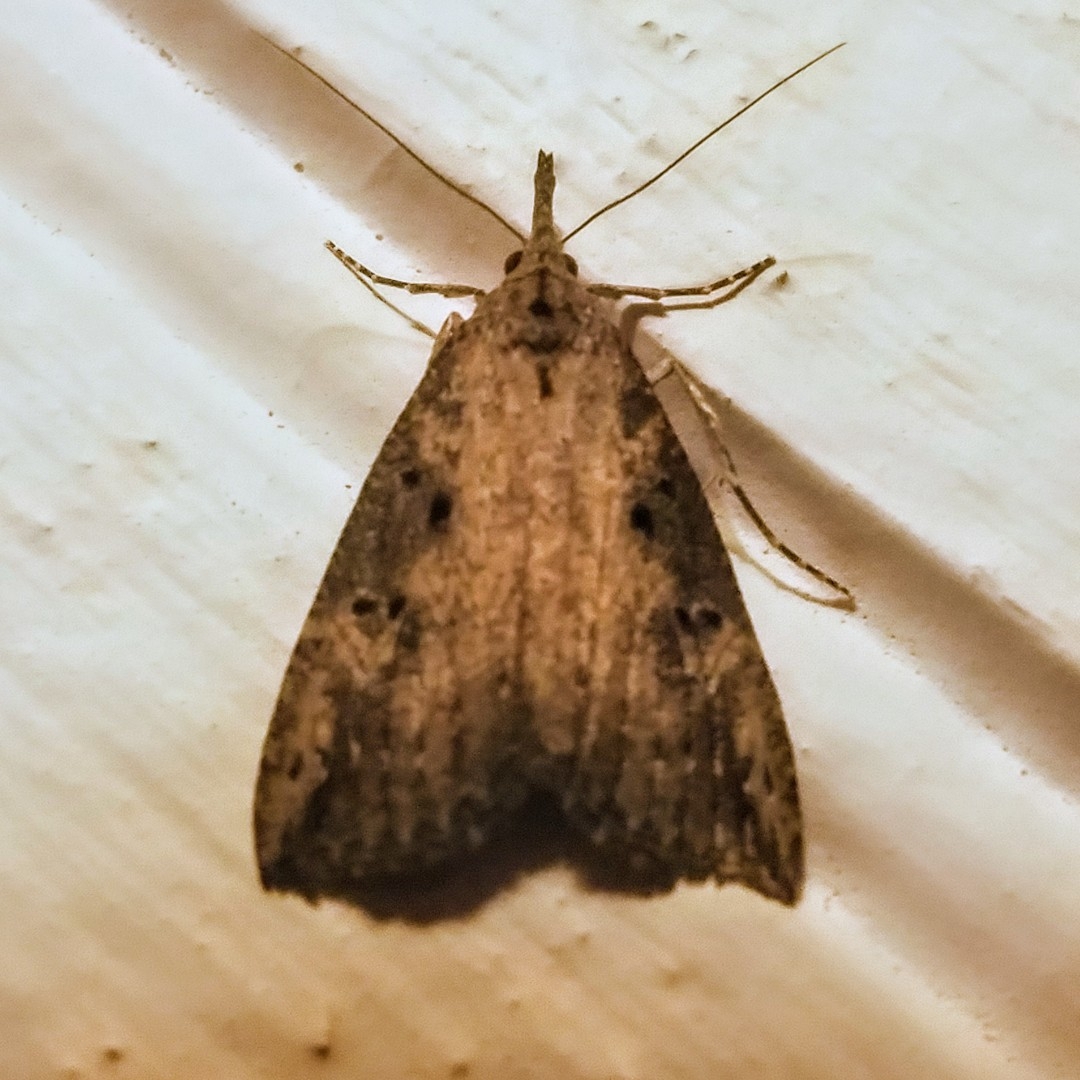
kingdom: Animalia
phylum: Arthropoda
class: Insecta
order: Lepidoptera
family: Erebidae
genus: Hypena
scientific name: Hypena humuli
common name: Hop vine snout
